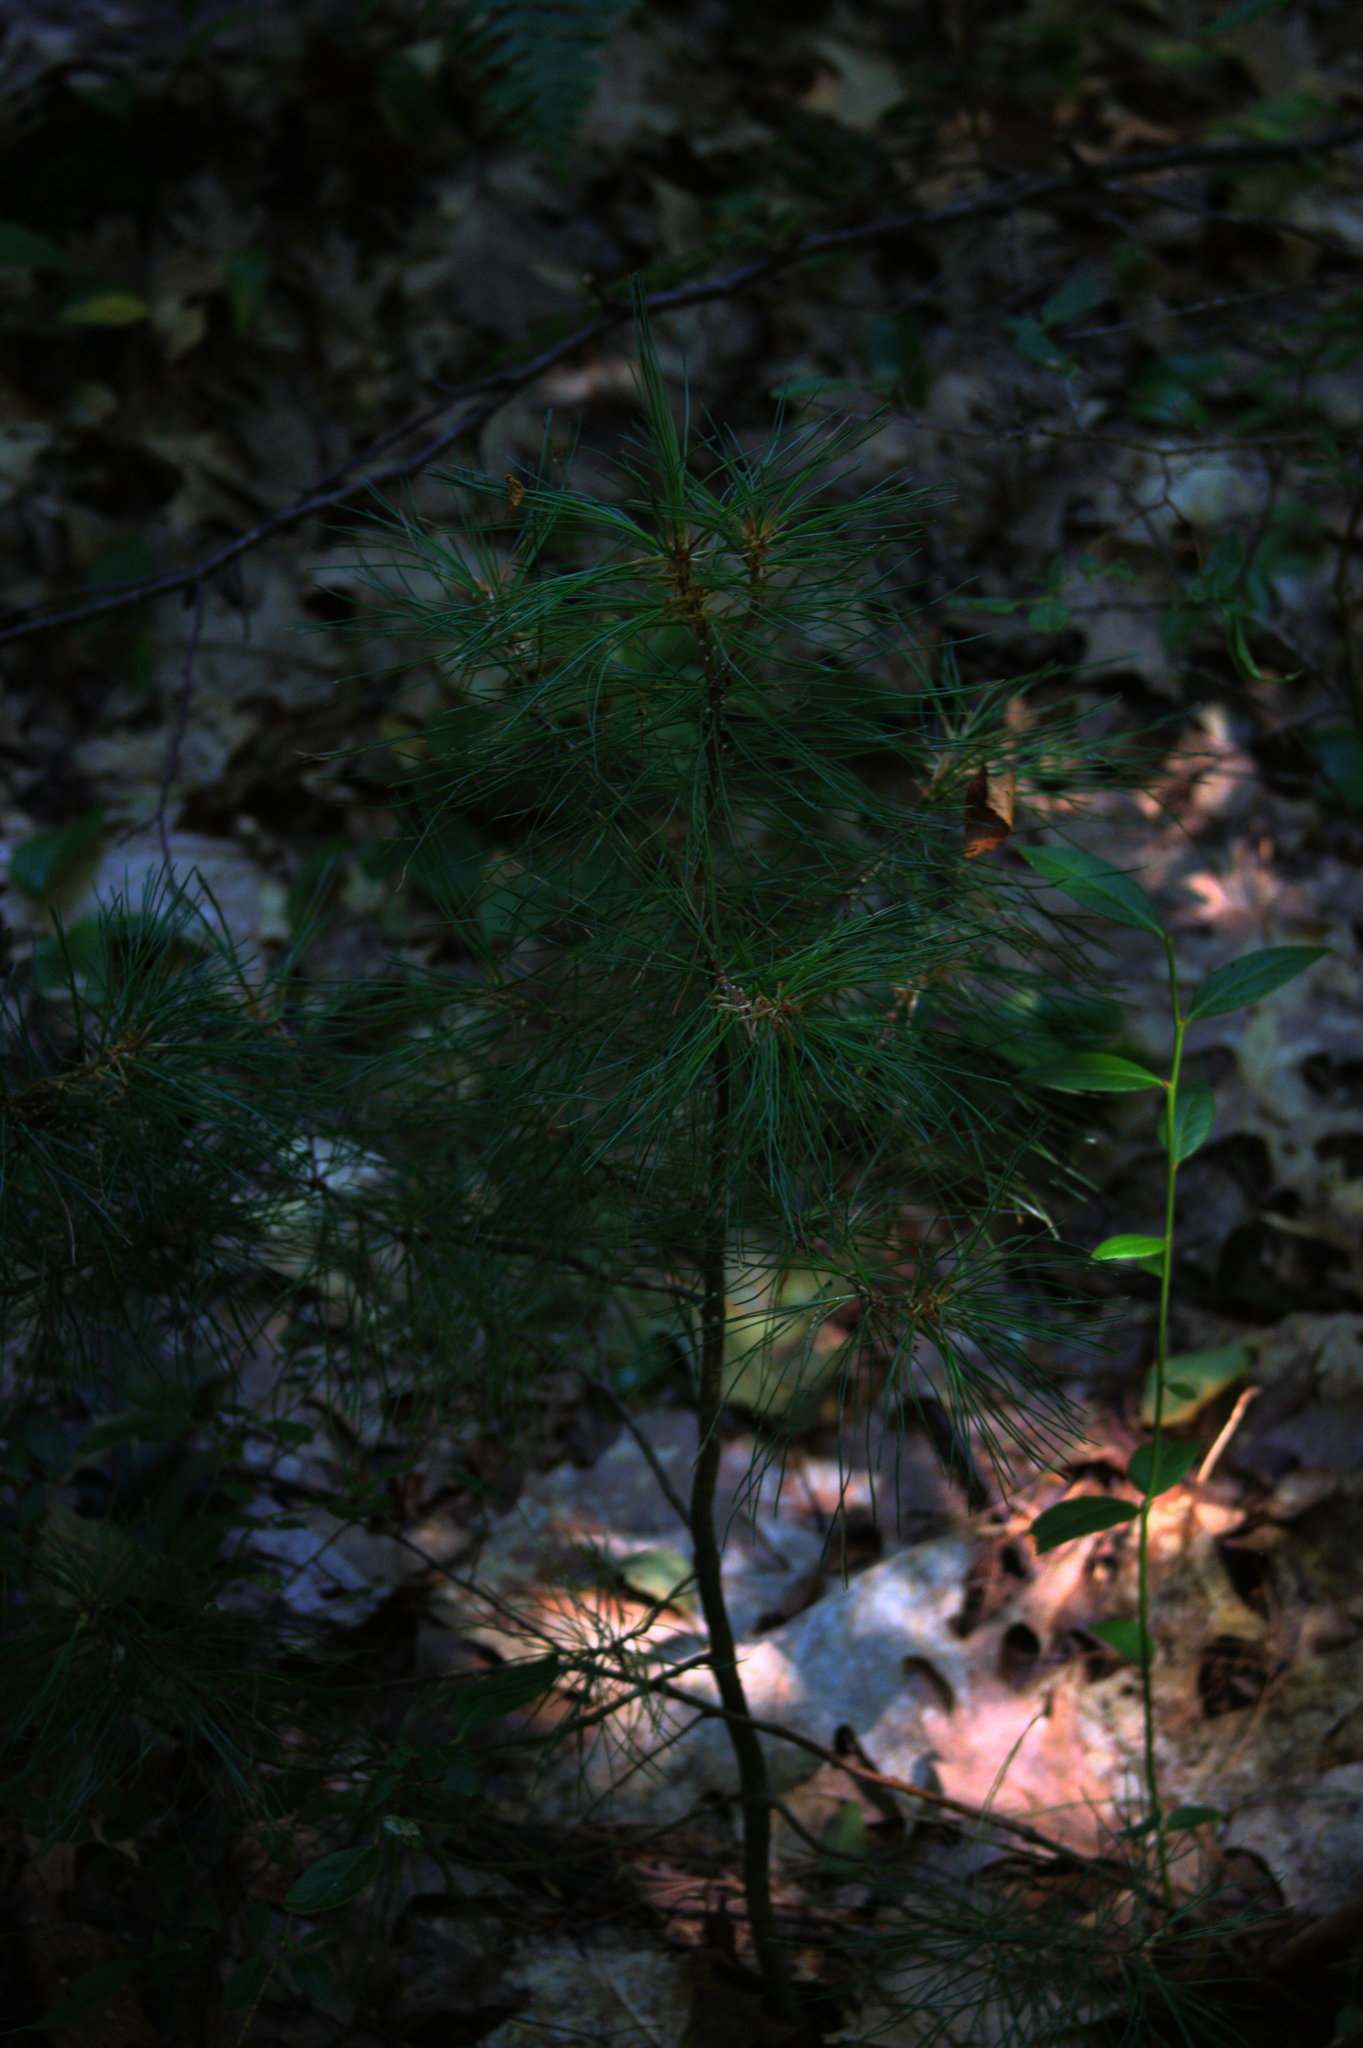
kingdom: Plantae
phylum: Tracheophyta
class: Pinopsida
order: Pinales
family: Pinaceae
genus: Pinus
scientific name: Pinus strobus
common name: Weymouth pine
